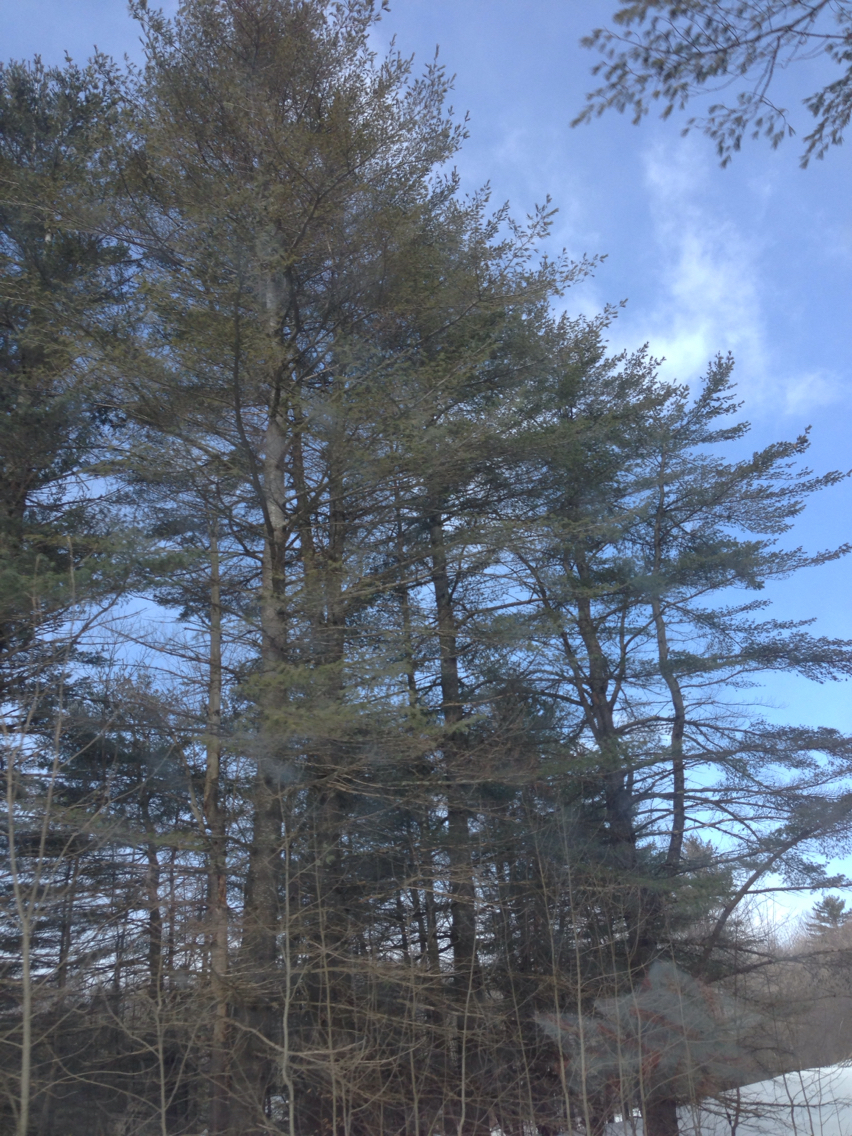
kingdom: Plantae
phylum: Tracheophyta
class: Pinopsida
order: Pinales
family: Pinaceae
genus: Pinus
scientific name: Pinus strobus
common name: Weymouth pine
